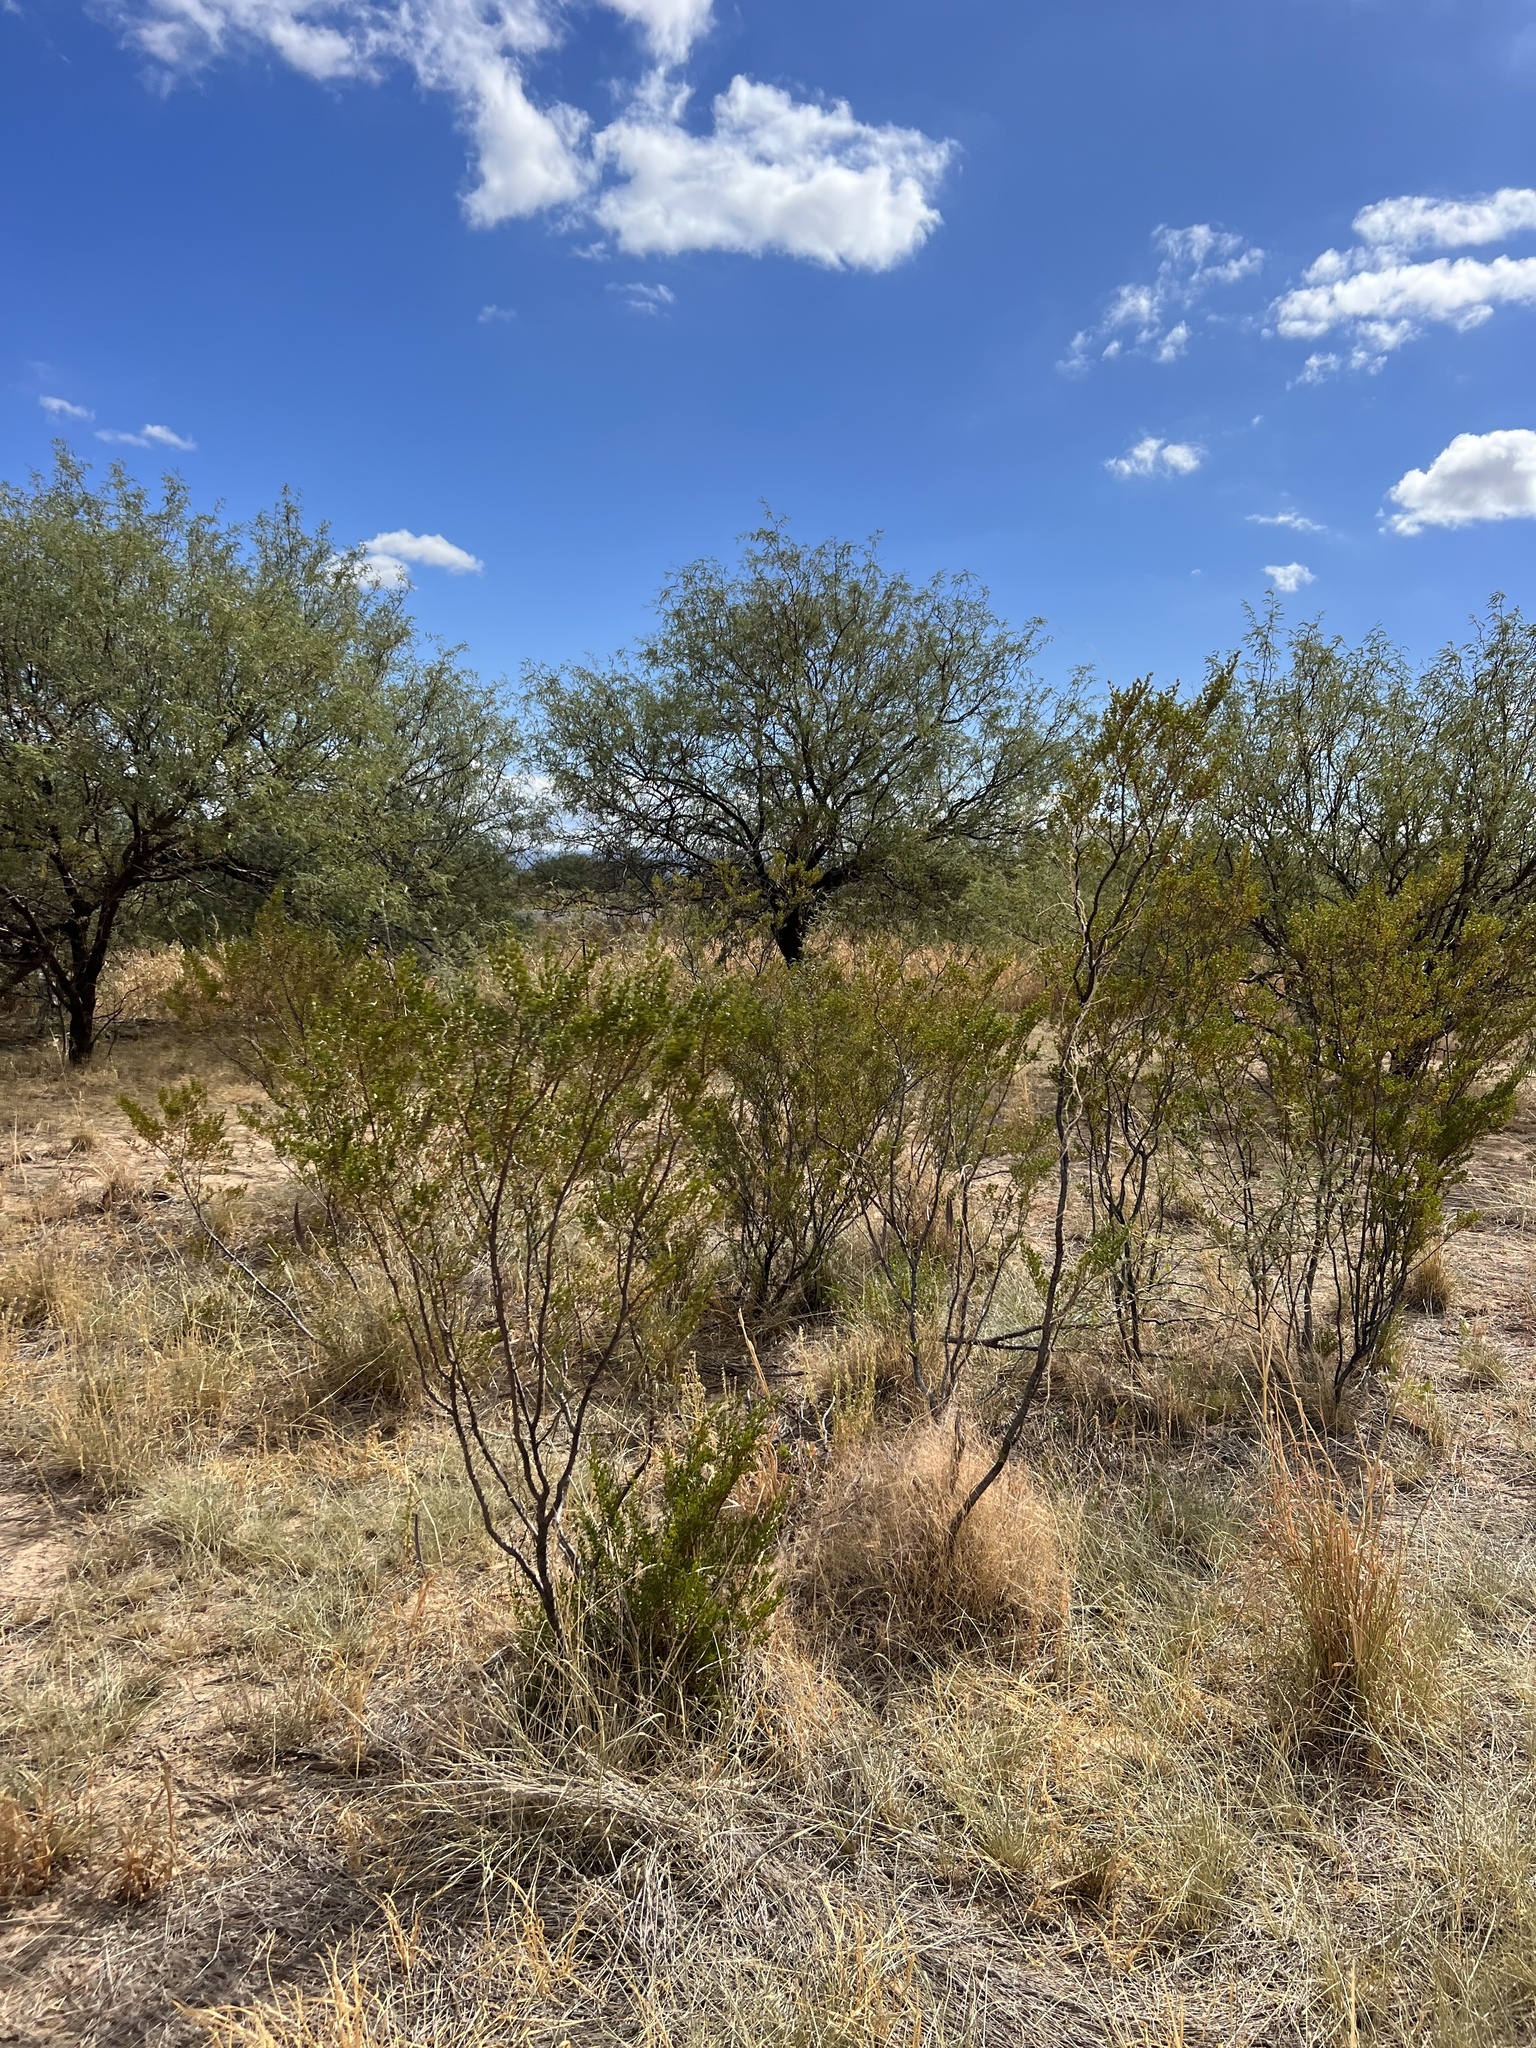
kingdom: Plantae
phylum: Tracheophyta
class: Magnoliopsida
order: Zygophyllales
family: Zygophyllaceae
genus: Larrea
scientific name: Larrea tridentata
